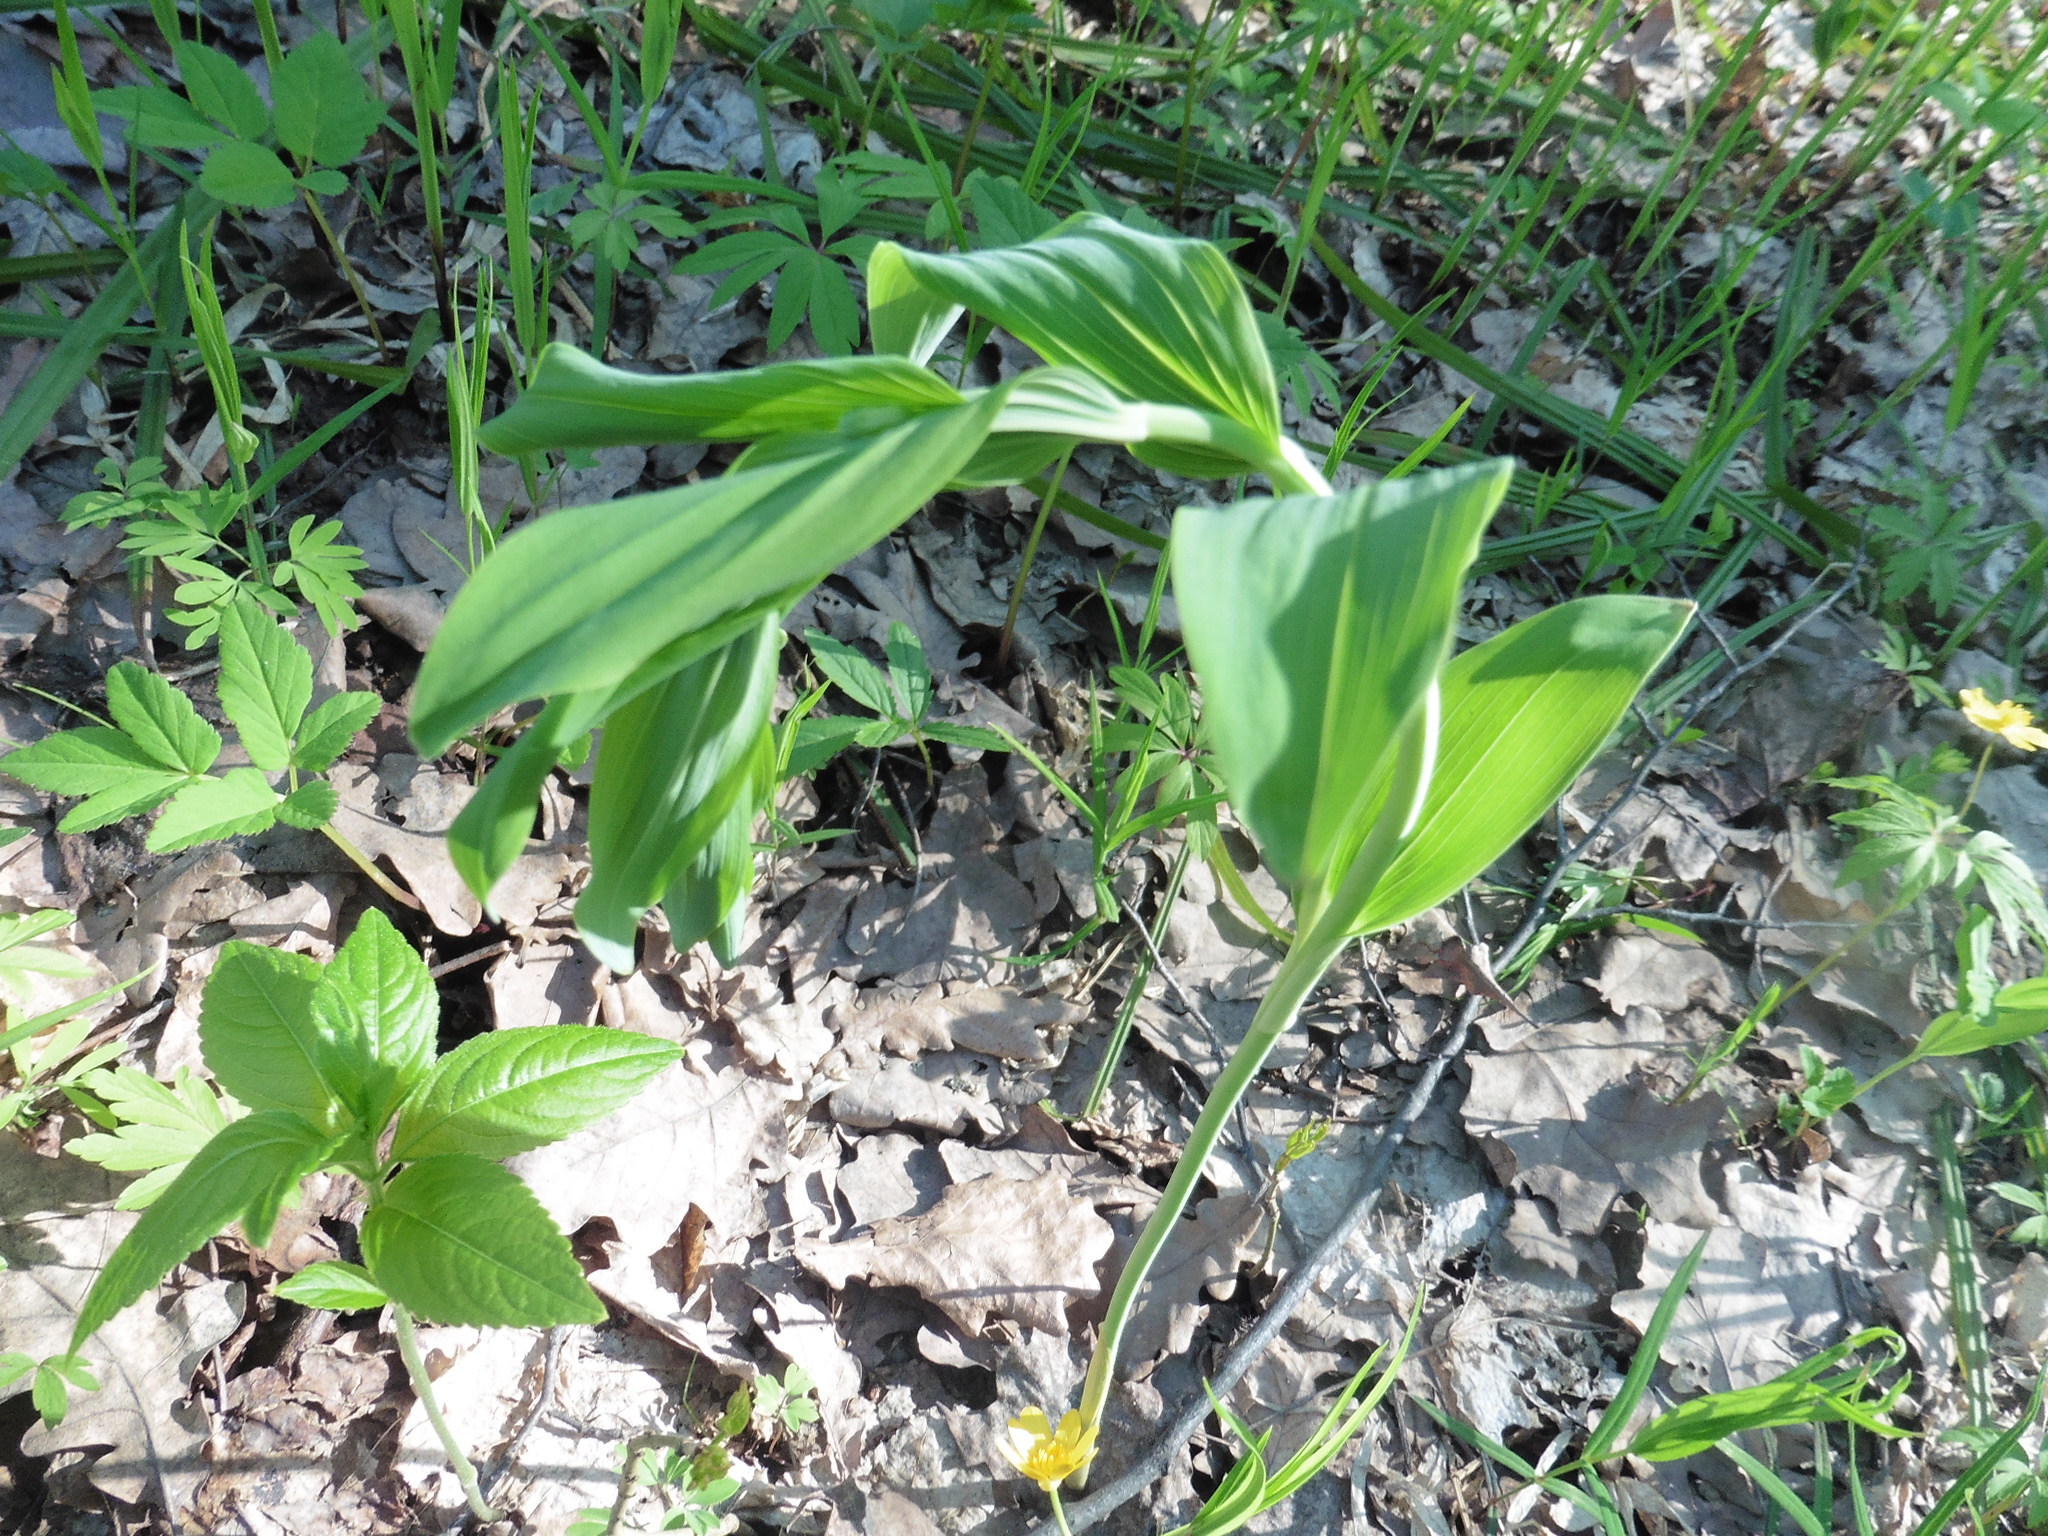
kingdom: Plantae
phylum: Tracheophyta
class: Liliopsida
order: Asparagales
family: Asparagaceae
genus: Polygonatum
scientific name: Polygonatum multiflorum
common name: Solomon's-seal
